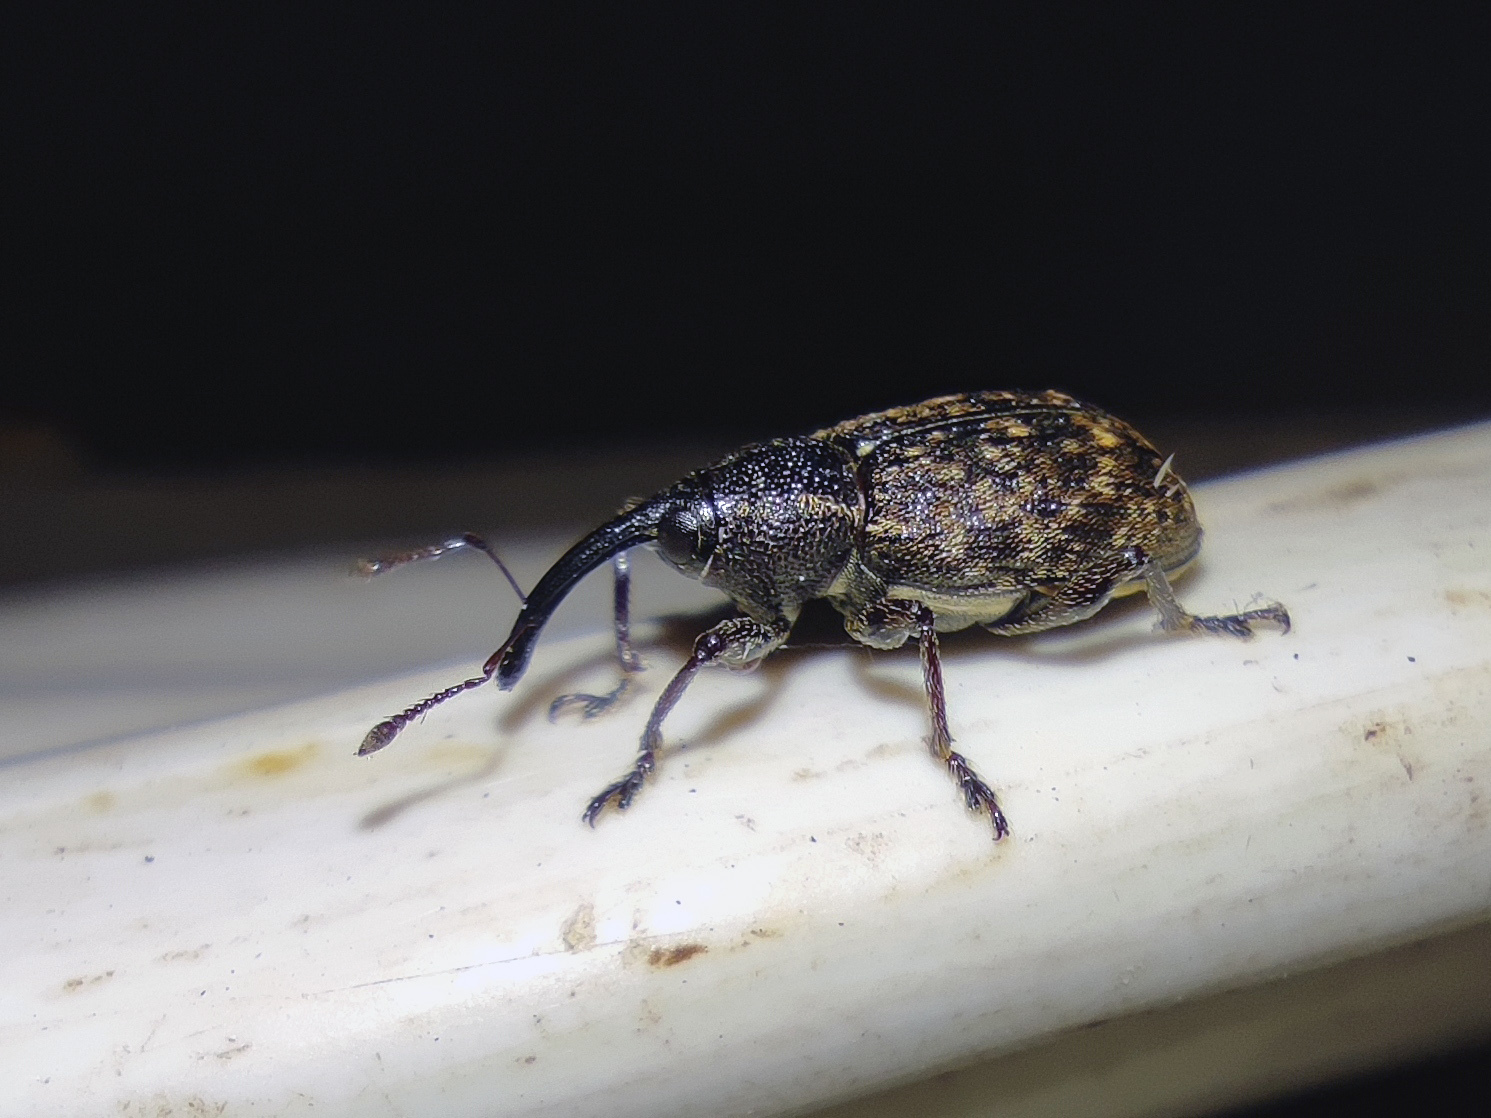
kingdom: Animalia
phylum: Arthropoda
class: Insecta
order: Coleoptera
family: Brachyceridae
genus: Notaris
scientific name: Notaris scirpi
